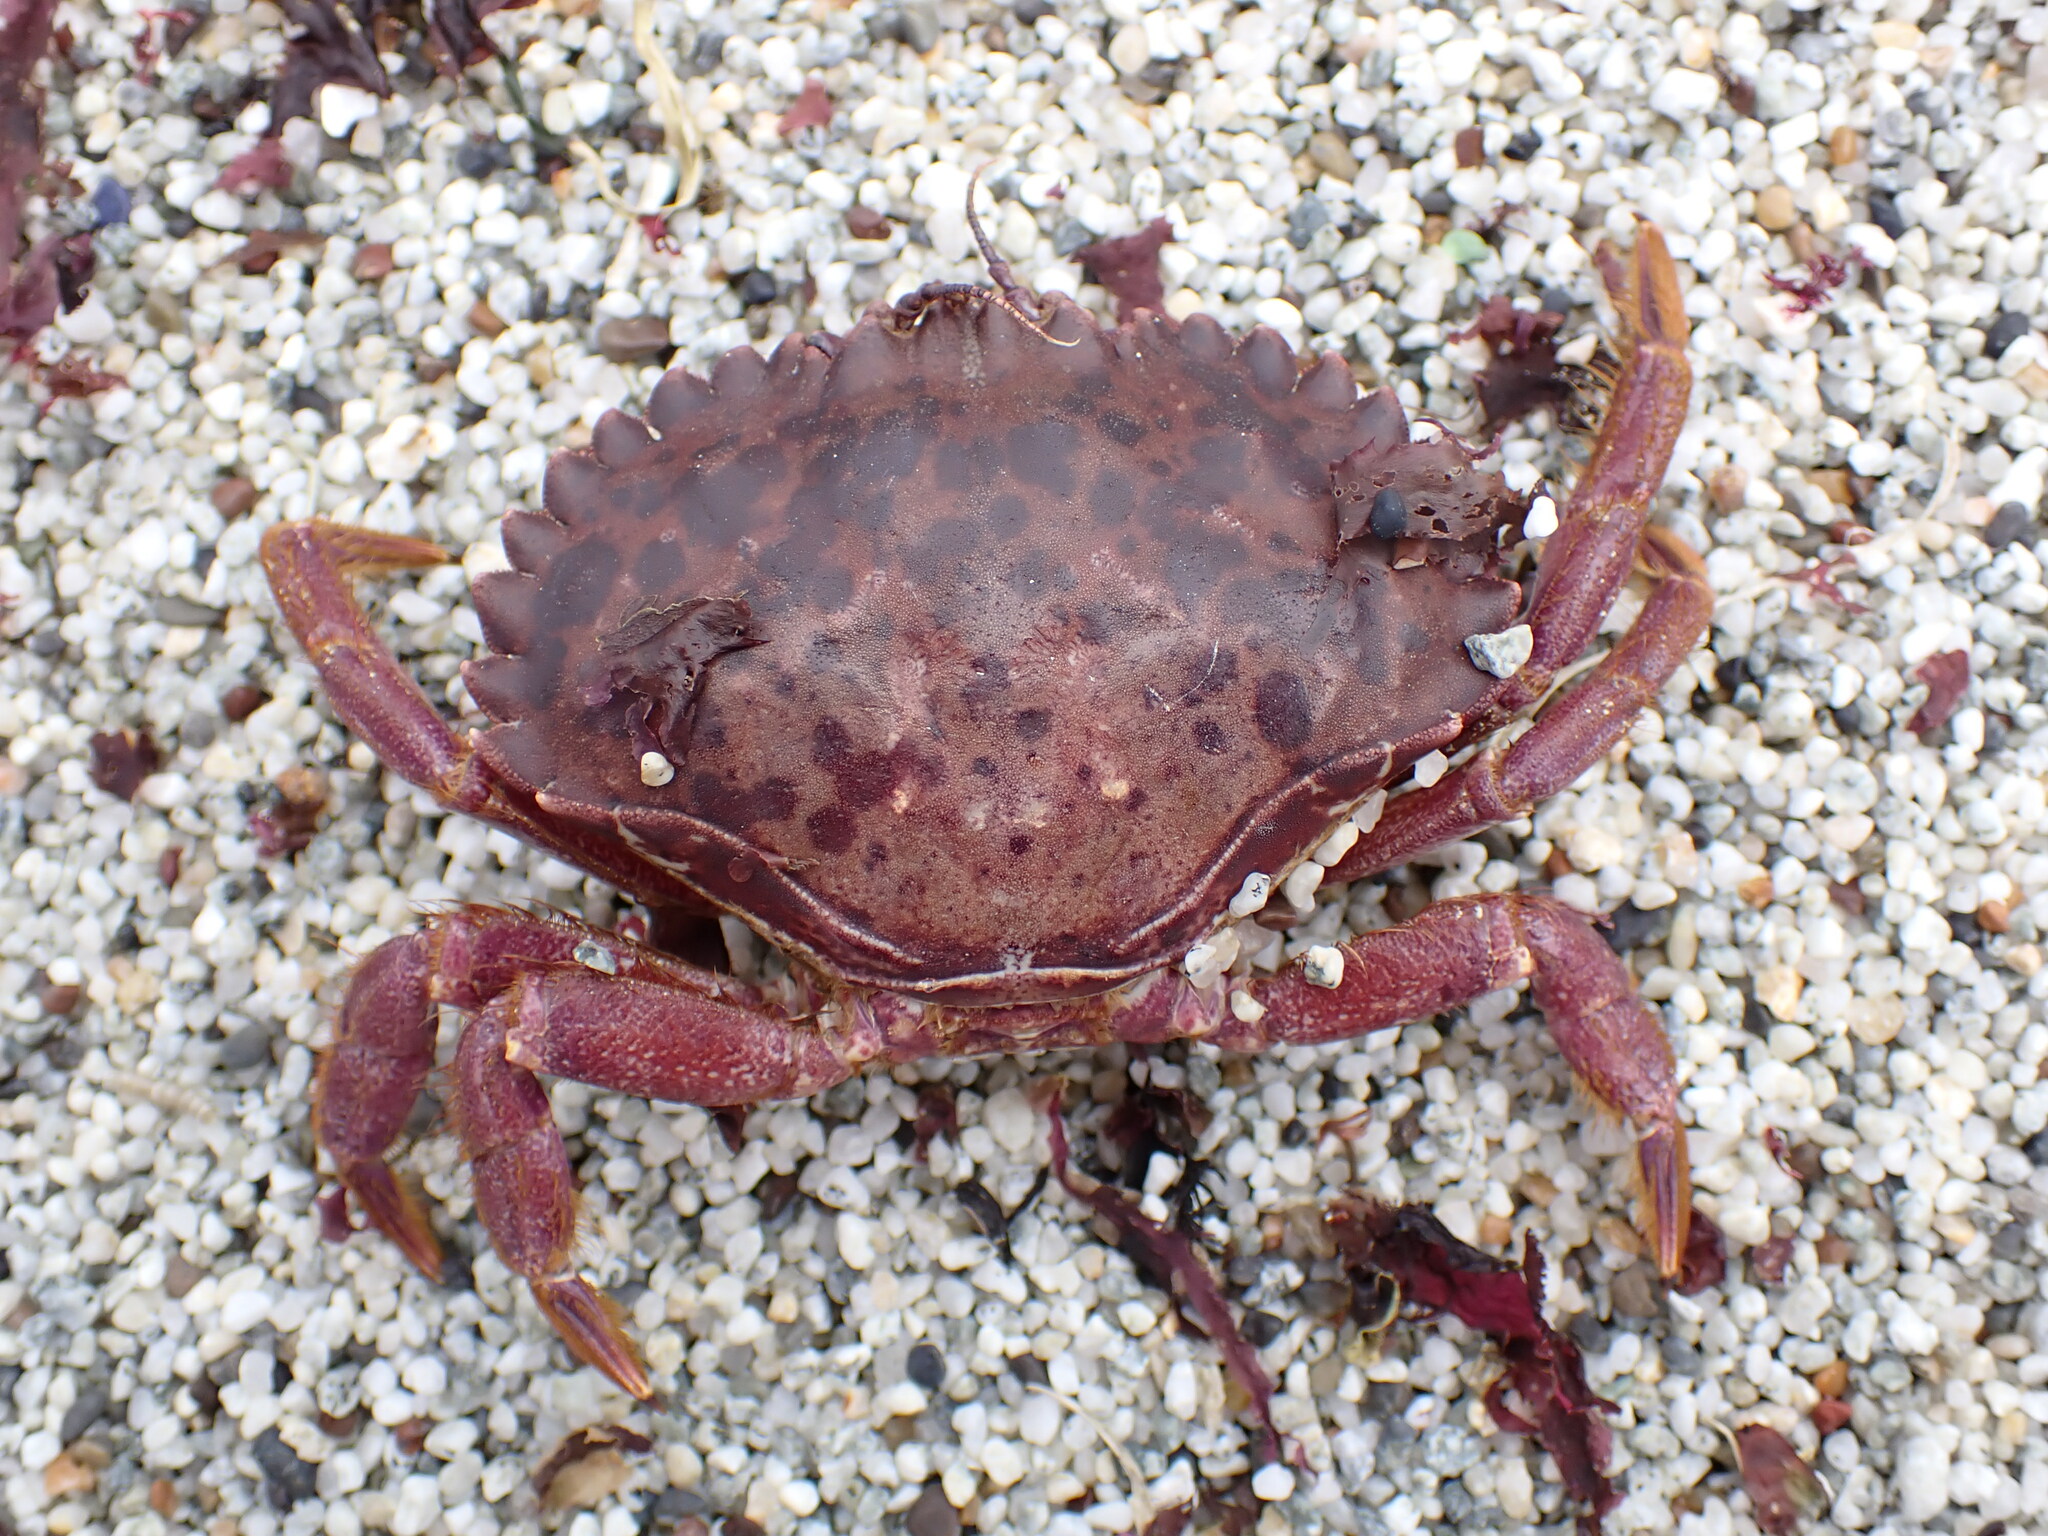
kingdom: Animalia
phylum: Arthropoda
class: Malacostraca
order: Decapoda
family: Cancridae
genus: Romaleon
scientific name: Romaleon antennarium
